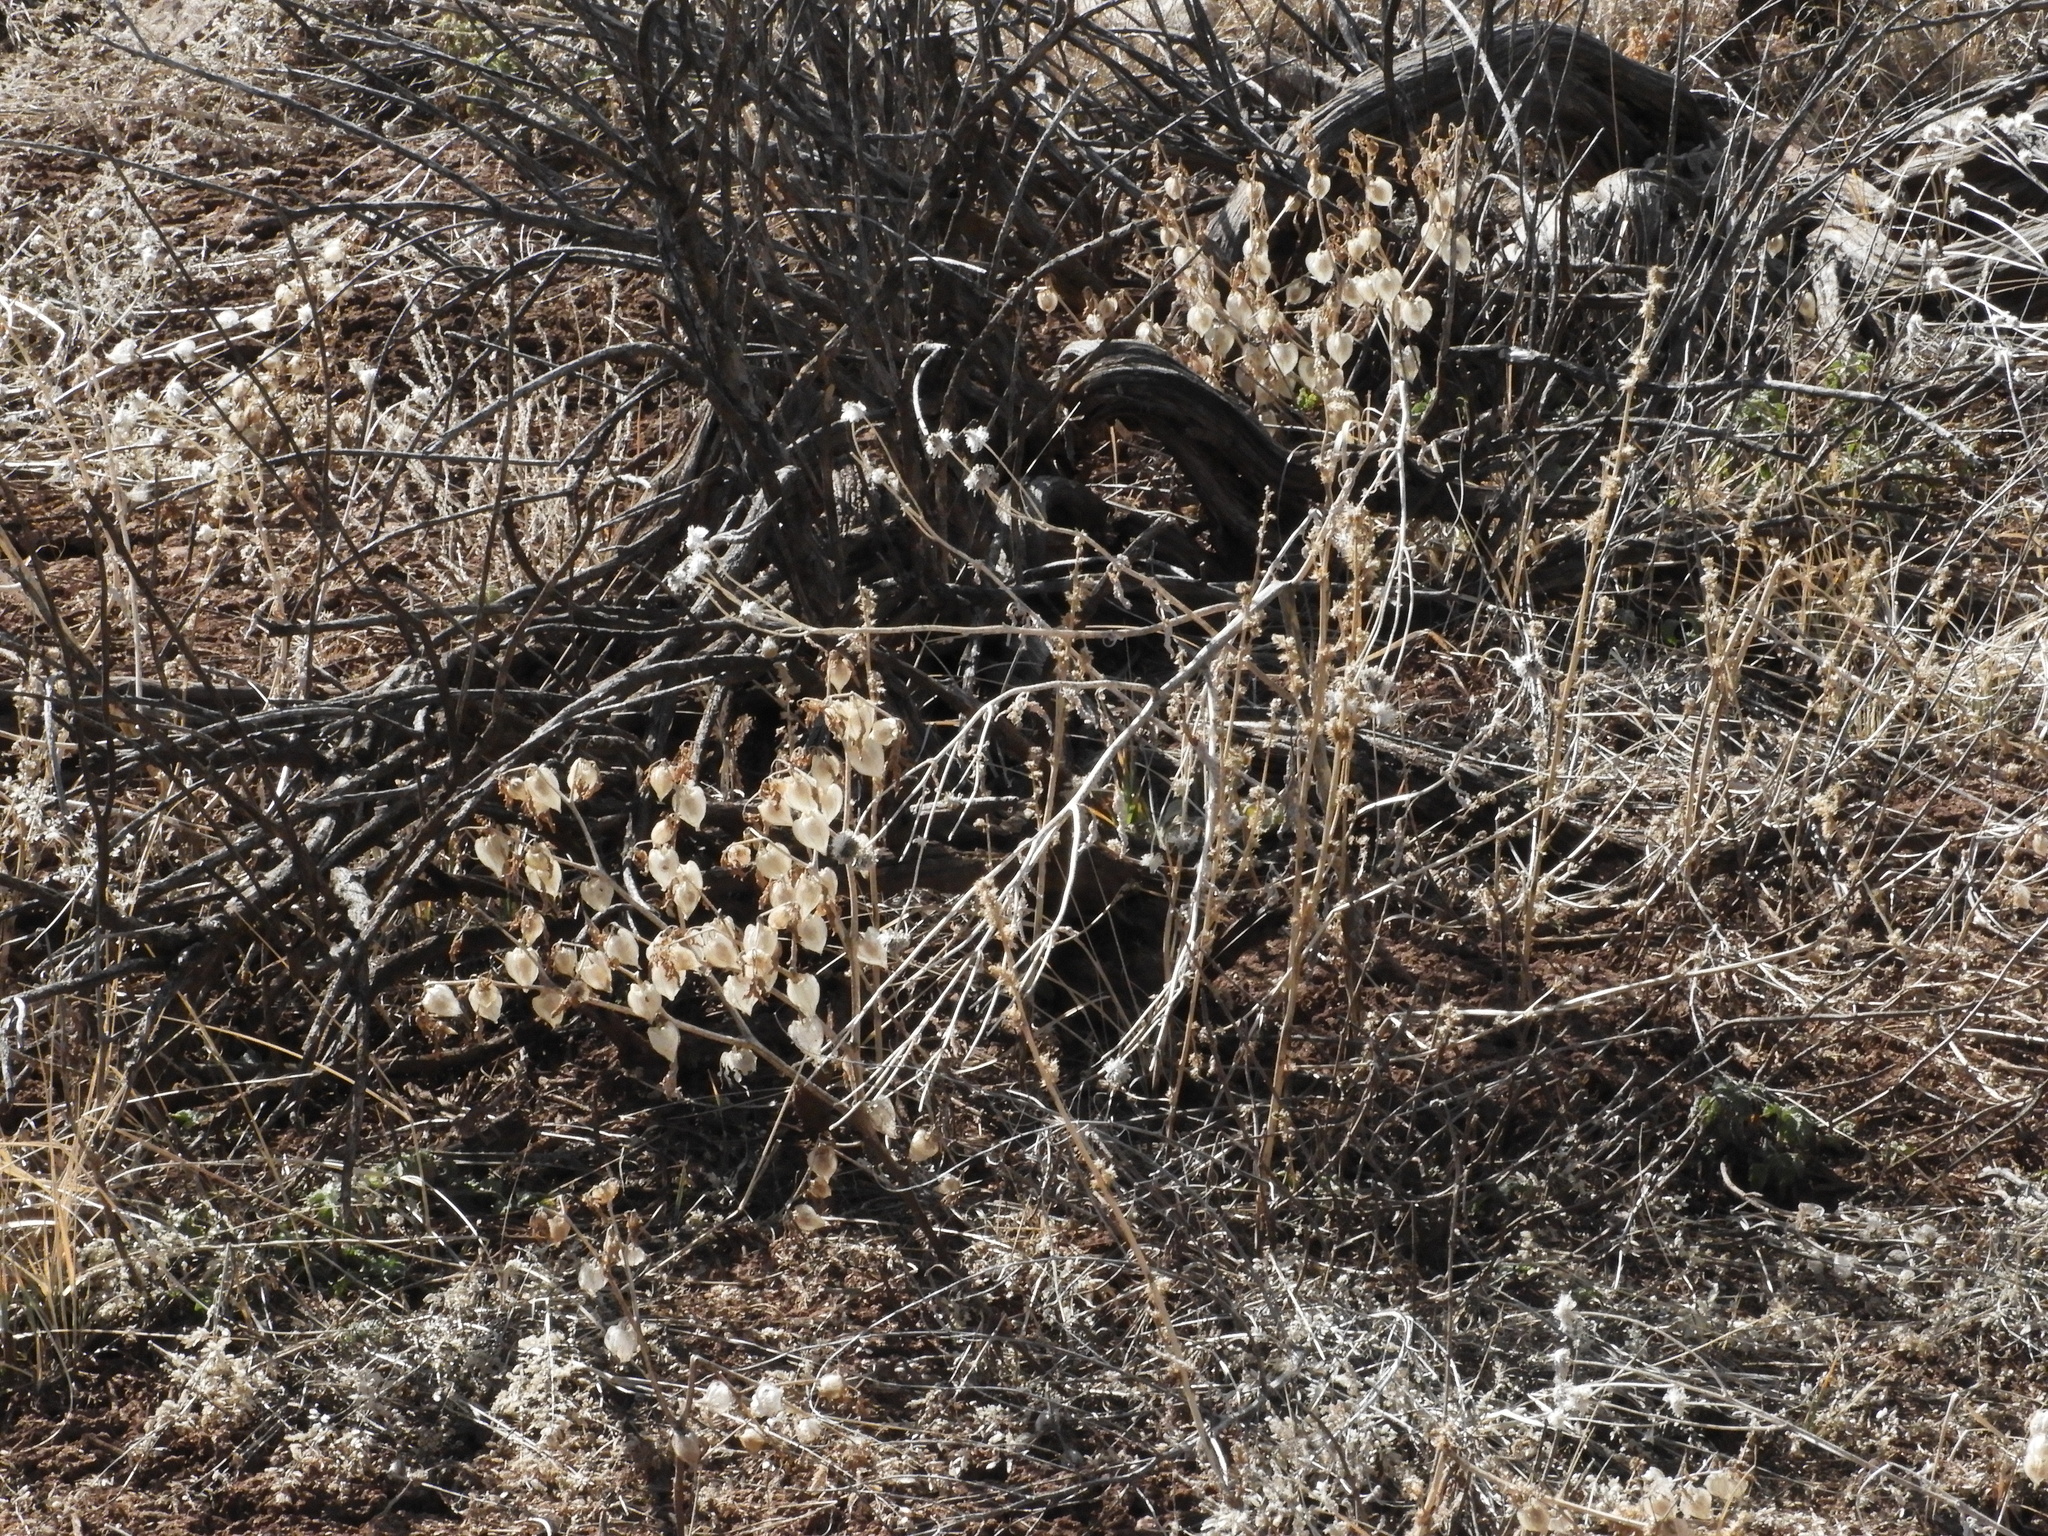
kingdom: Plantae
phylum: Tracheophyta
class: Magnoliopsida
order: Solanales
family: Solanaceae
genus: Physalis
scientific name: Physalis neomexicana
